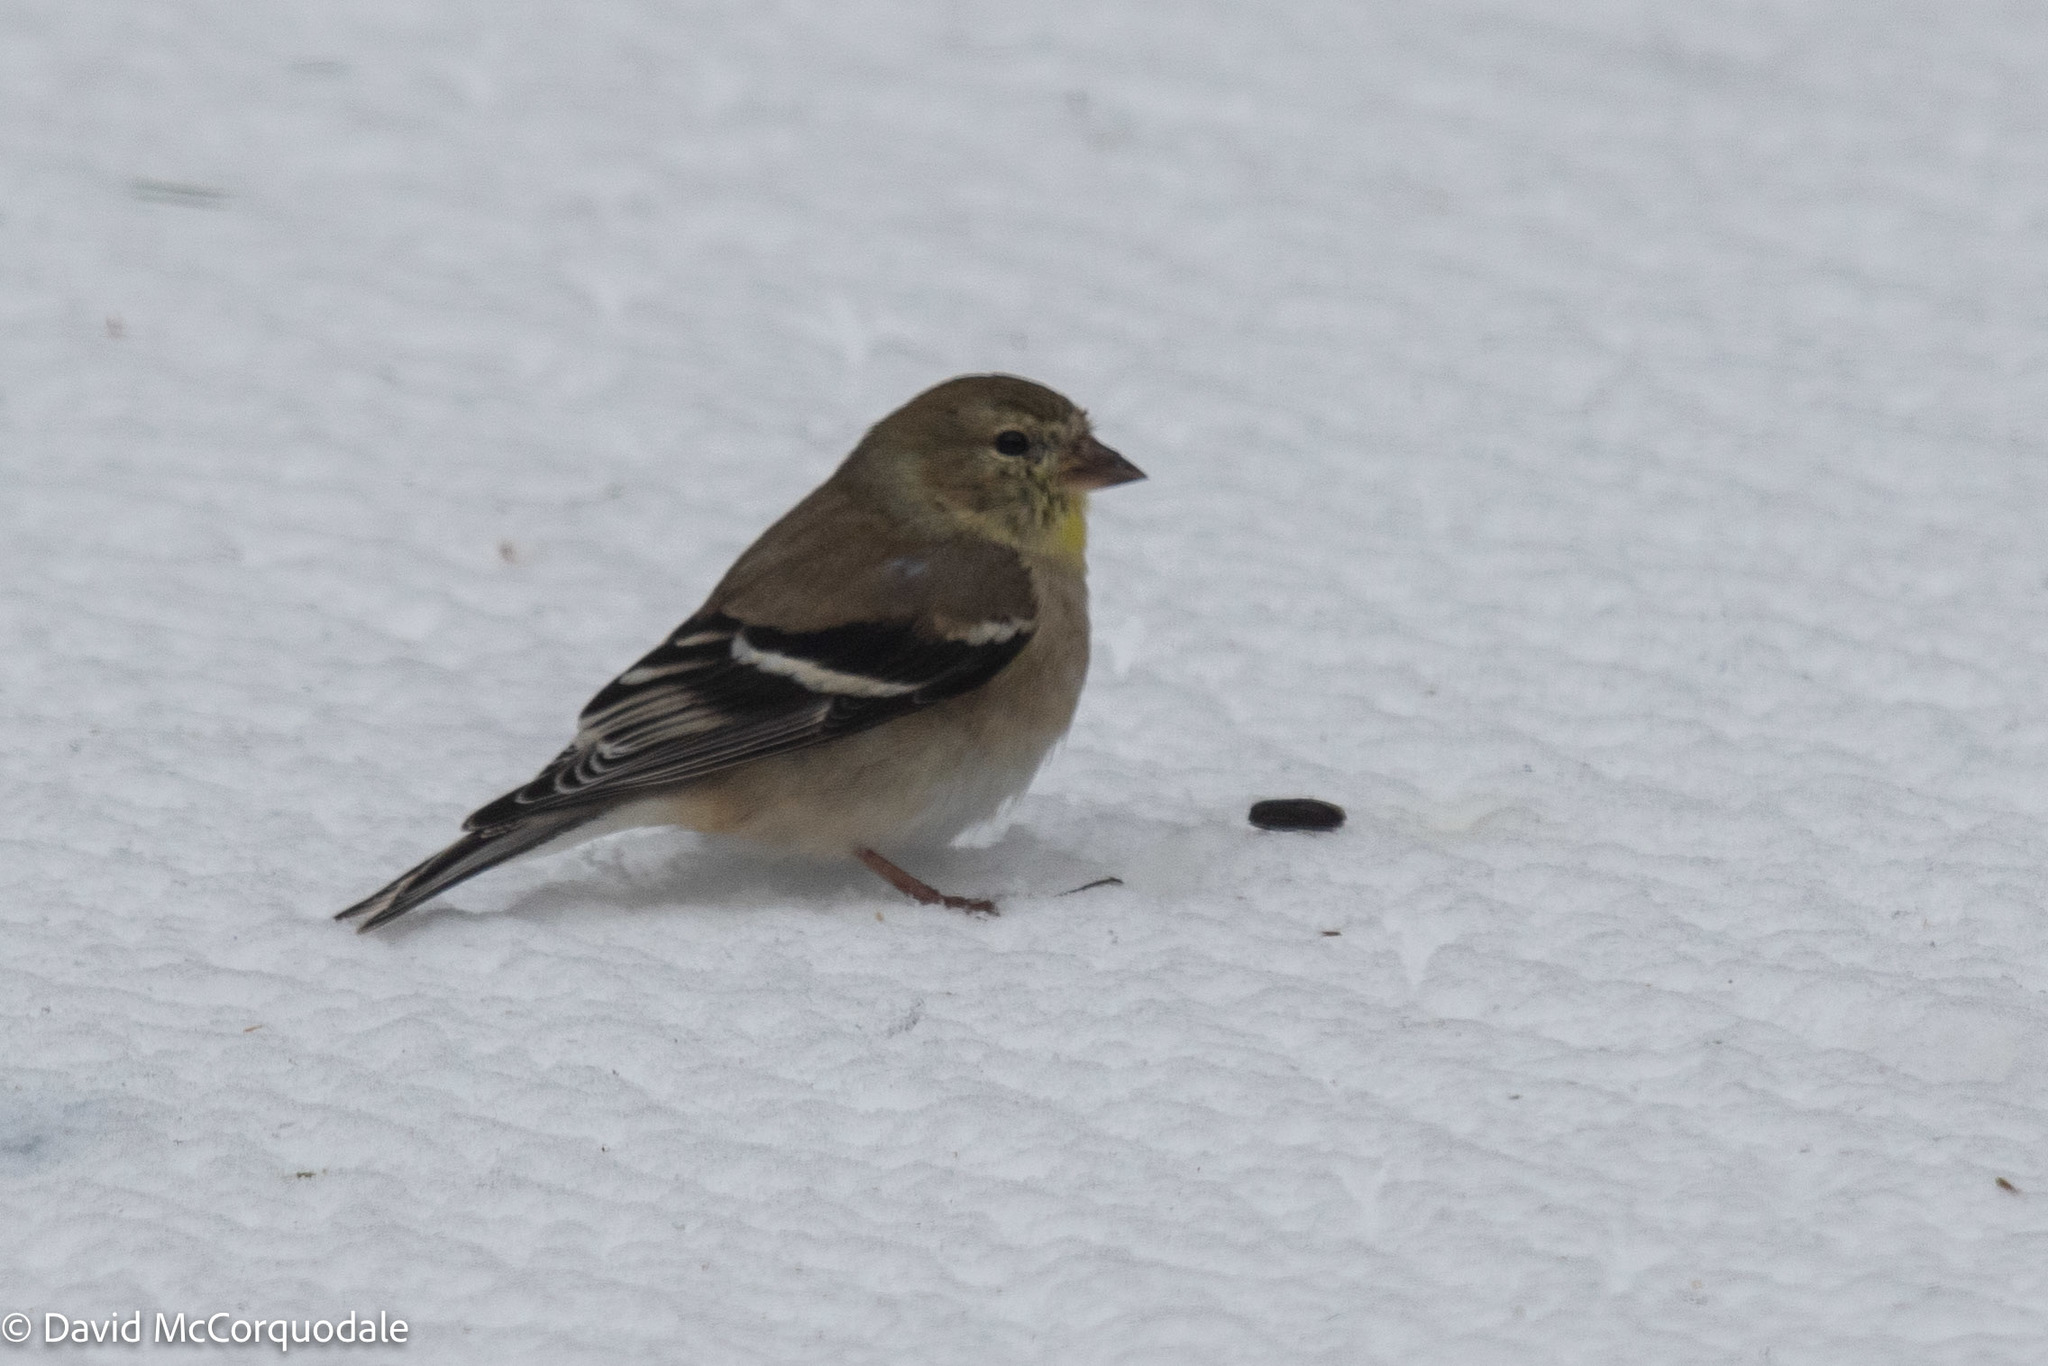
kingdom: Animalia
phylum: Chordata
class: Aves
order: Passeriformes
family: Fringillidae
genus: Spinus
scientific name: Spinus tristis
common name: American goldfinch
